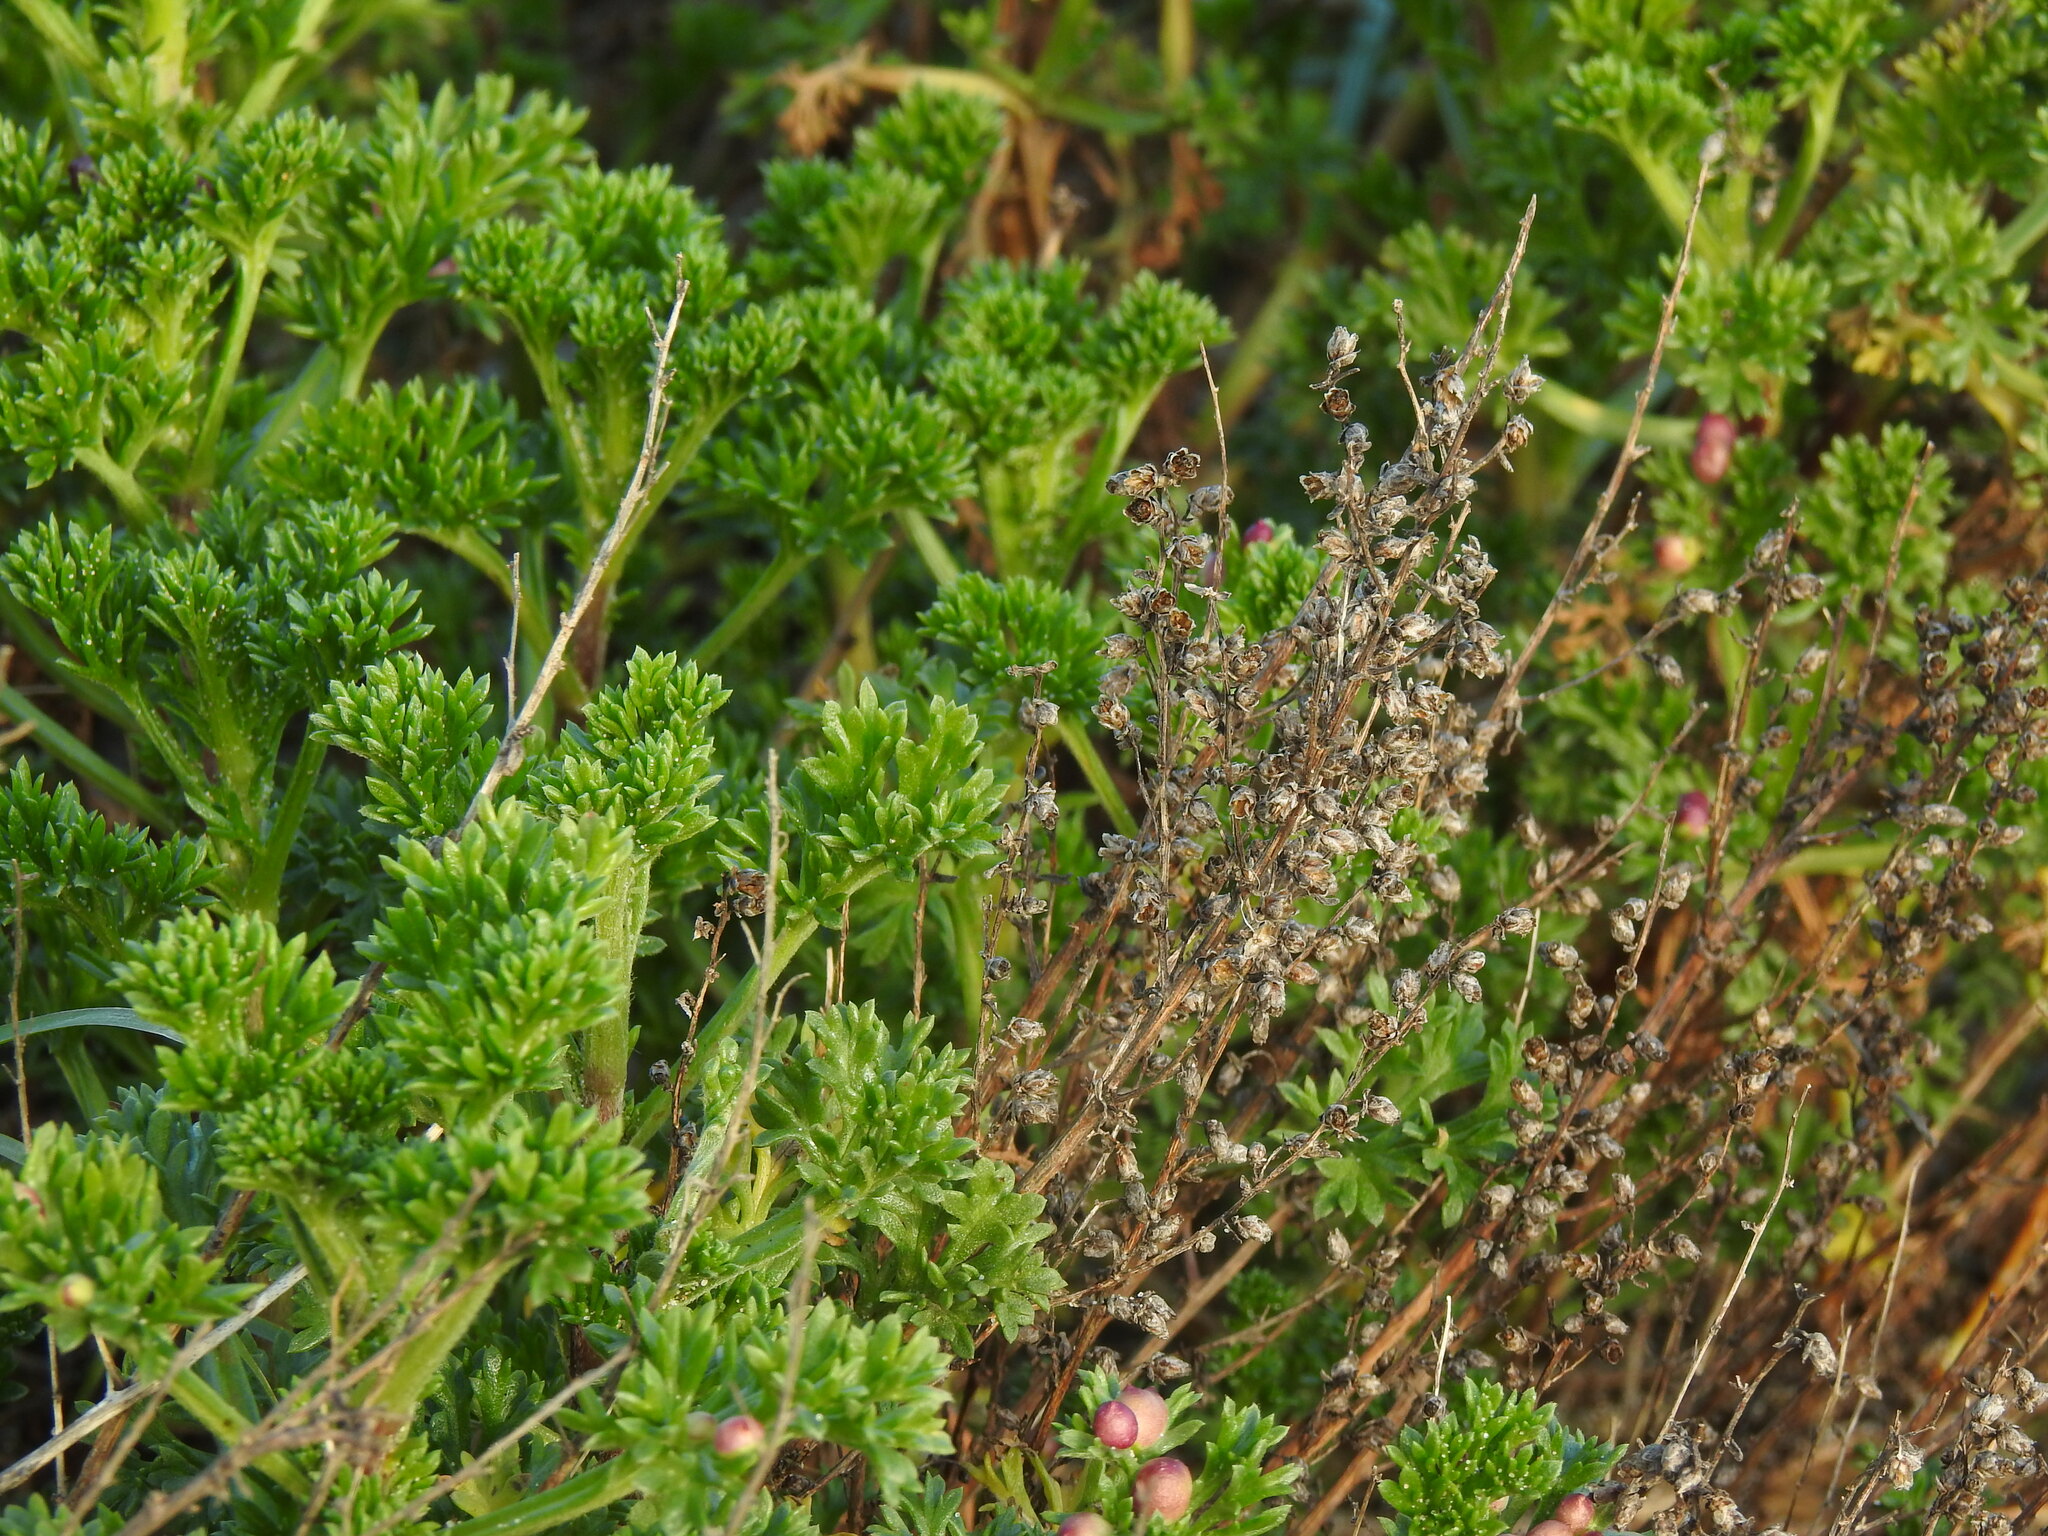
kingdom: Plantae
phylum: Tracheophyta
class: Magnoliopsida
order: Asterales
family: Asteraceae
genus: Artemisia
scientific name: Artemisia crithmifolia
